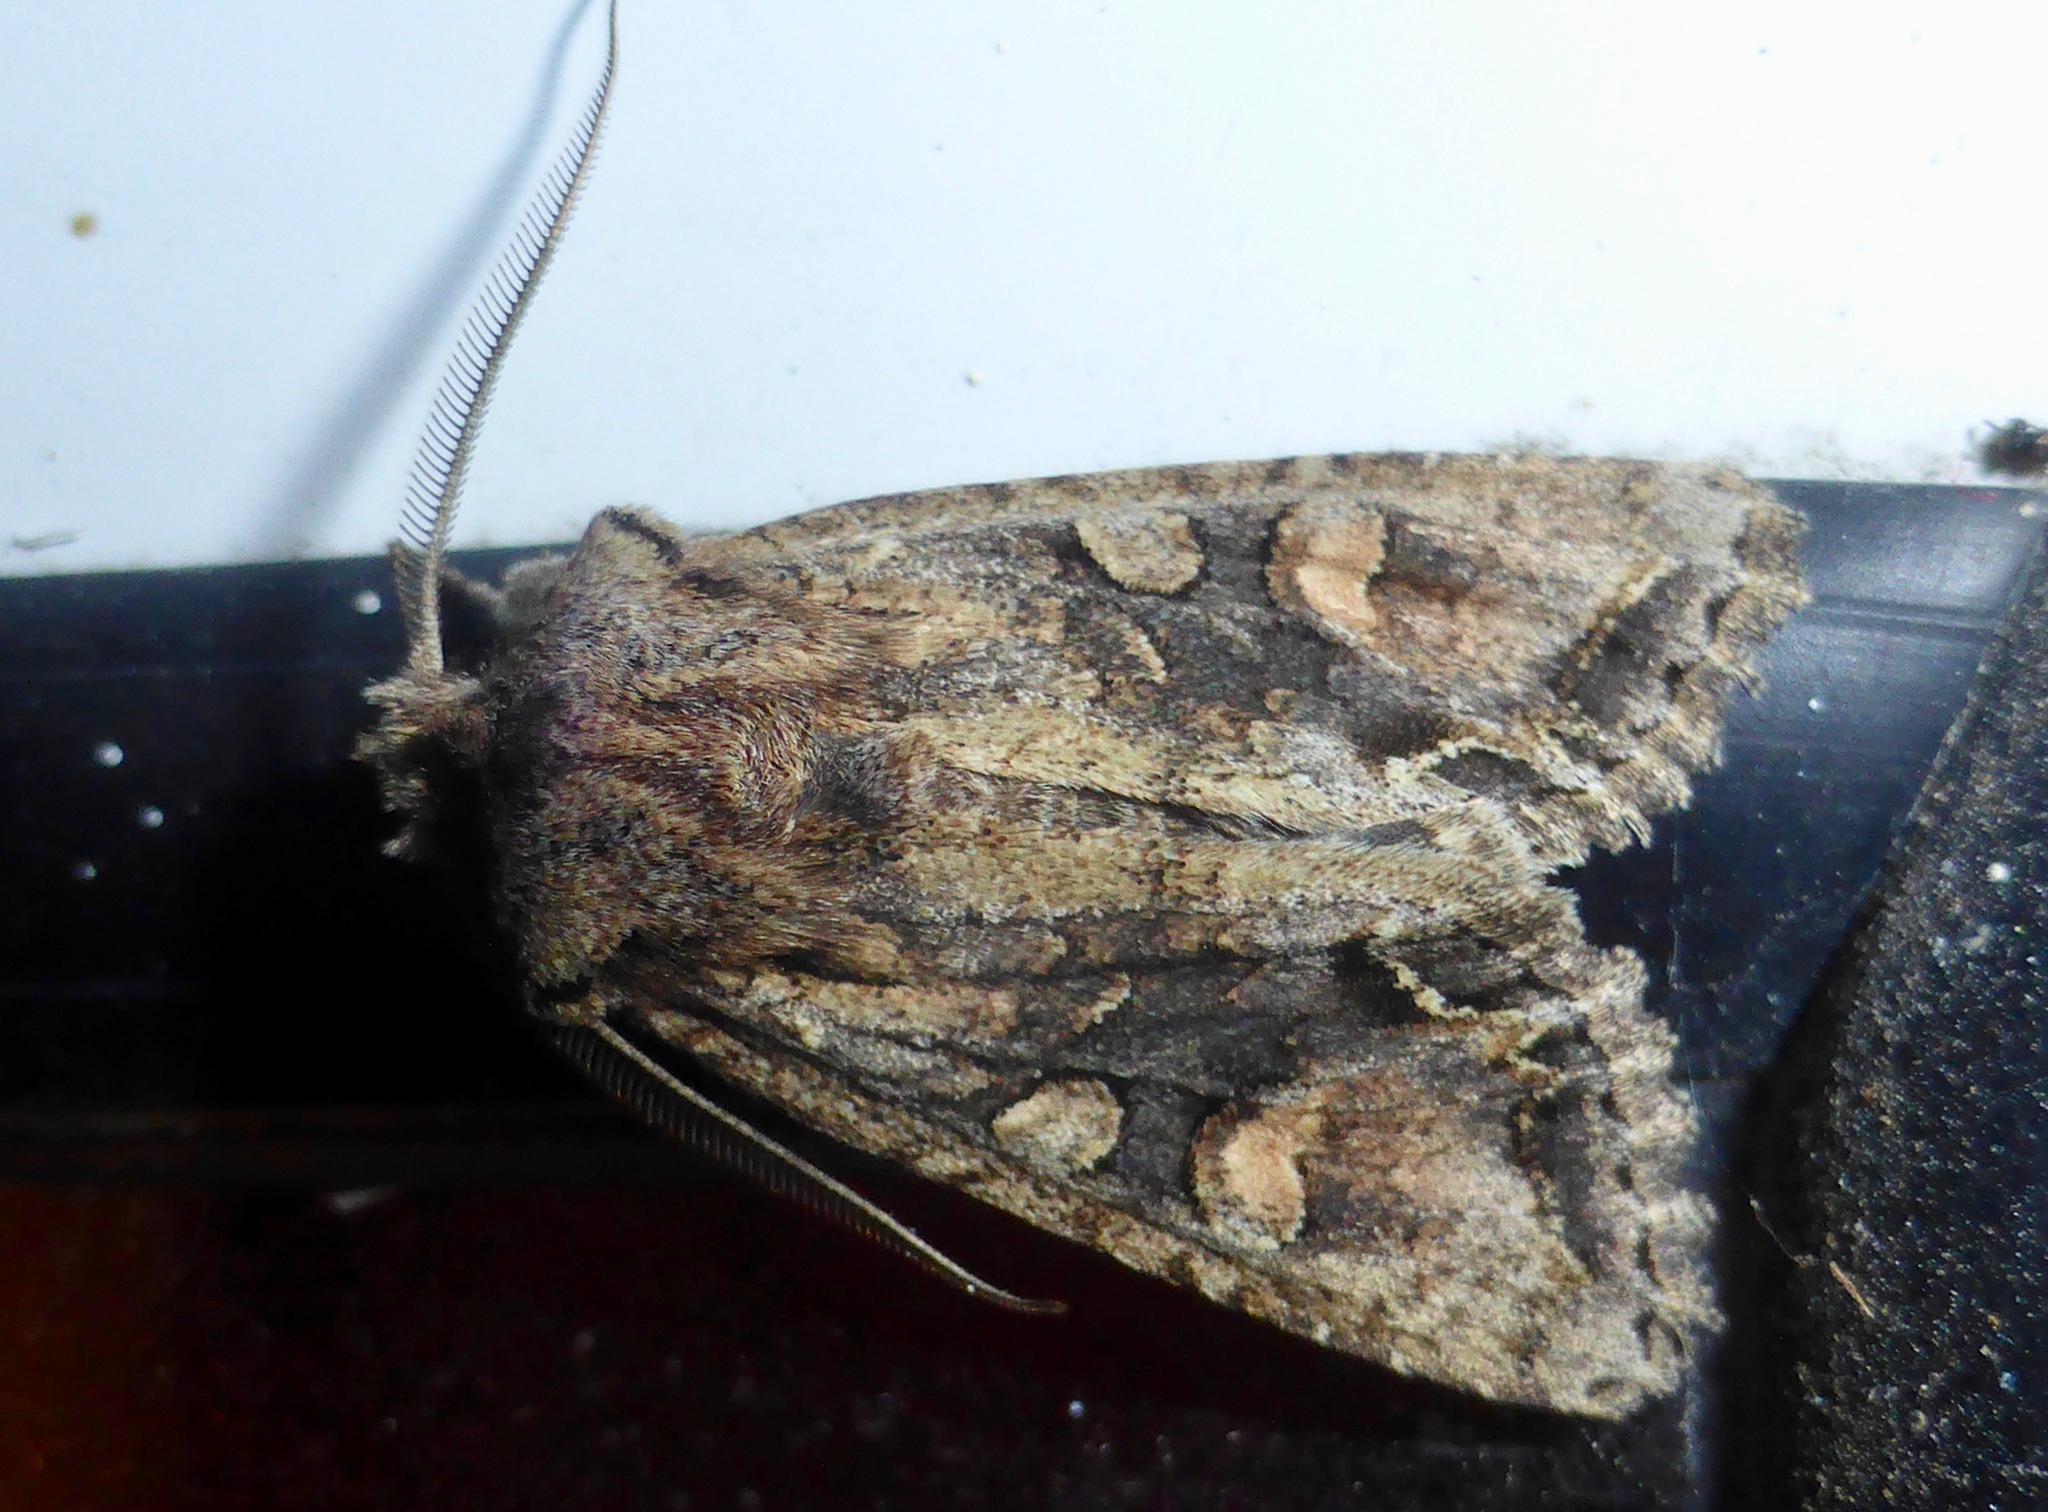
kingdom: Animalia
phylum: Arthropoda
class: Insecta
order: Lepidoptera
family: Noctuidae
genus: Ichneutica
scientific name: Ichneutica mutans
